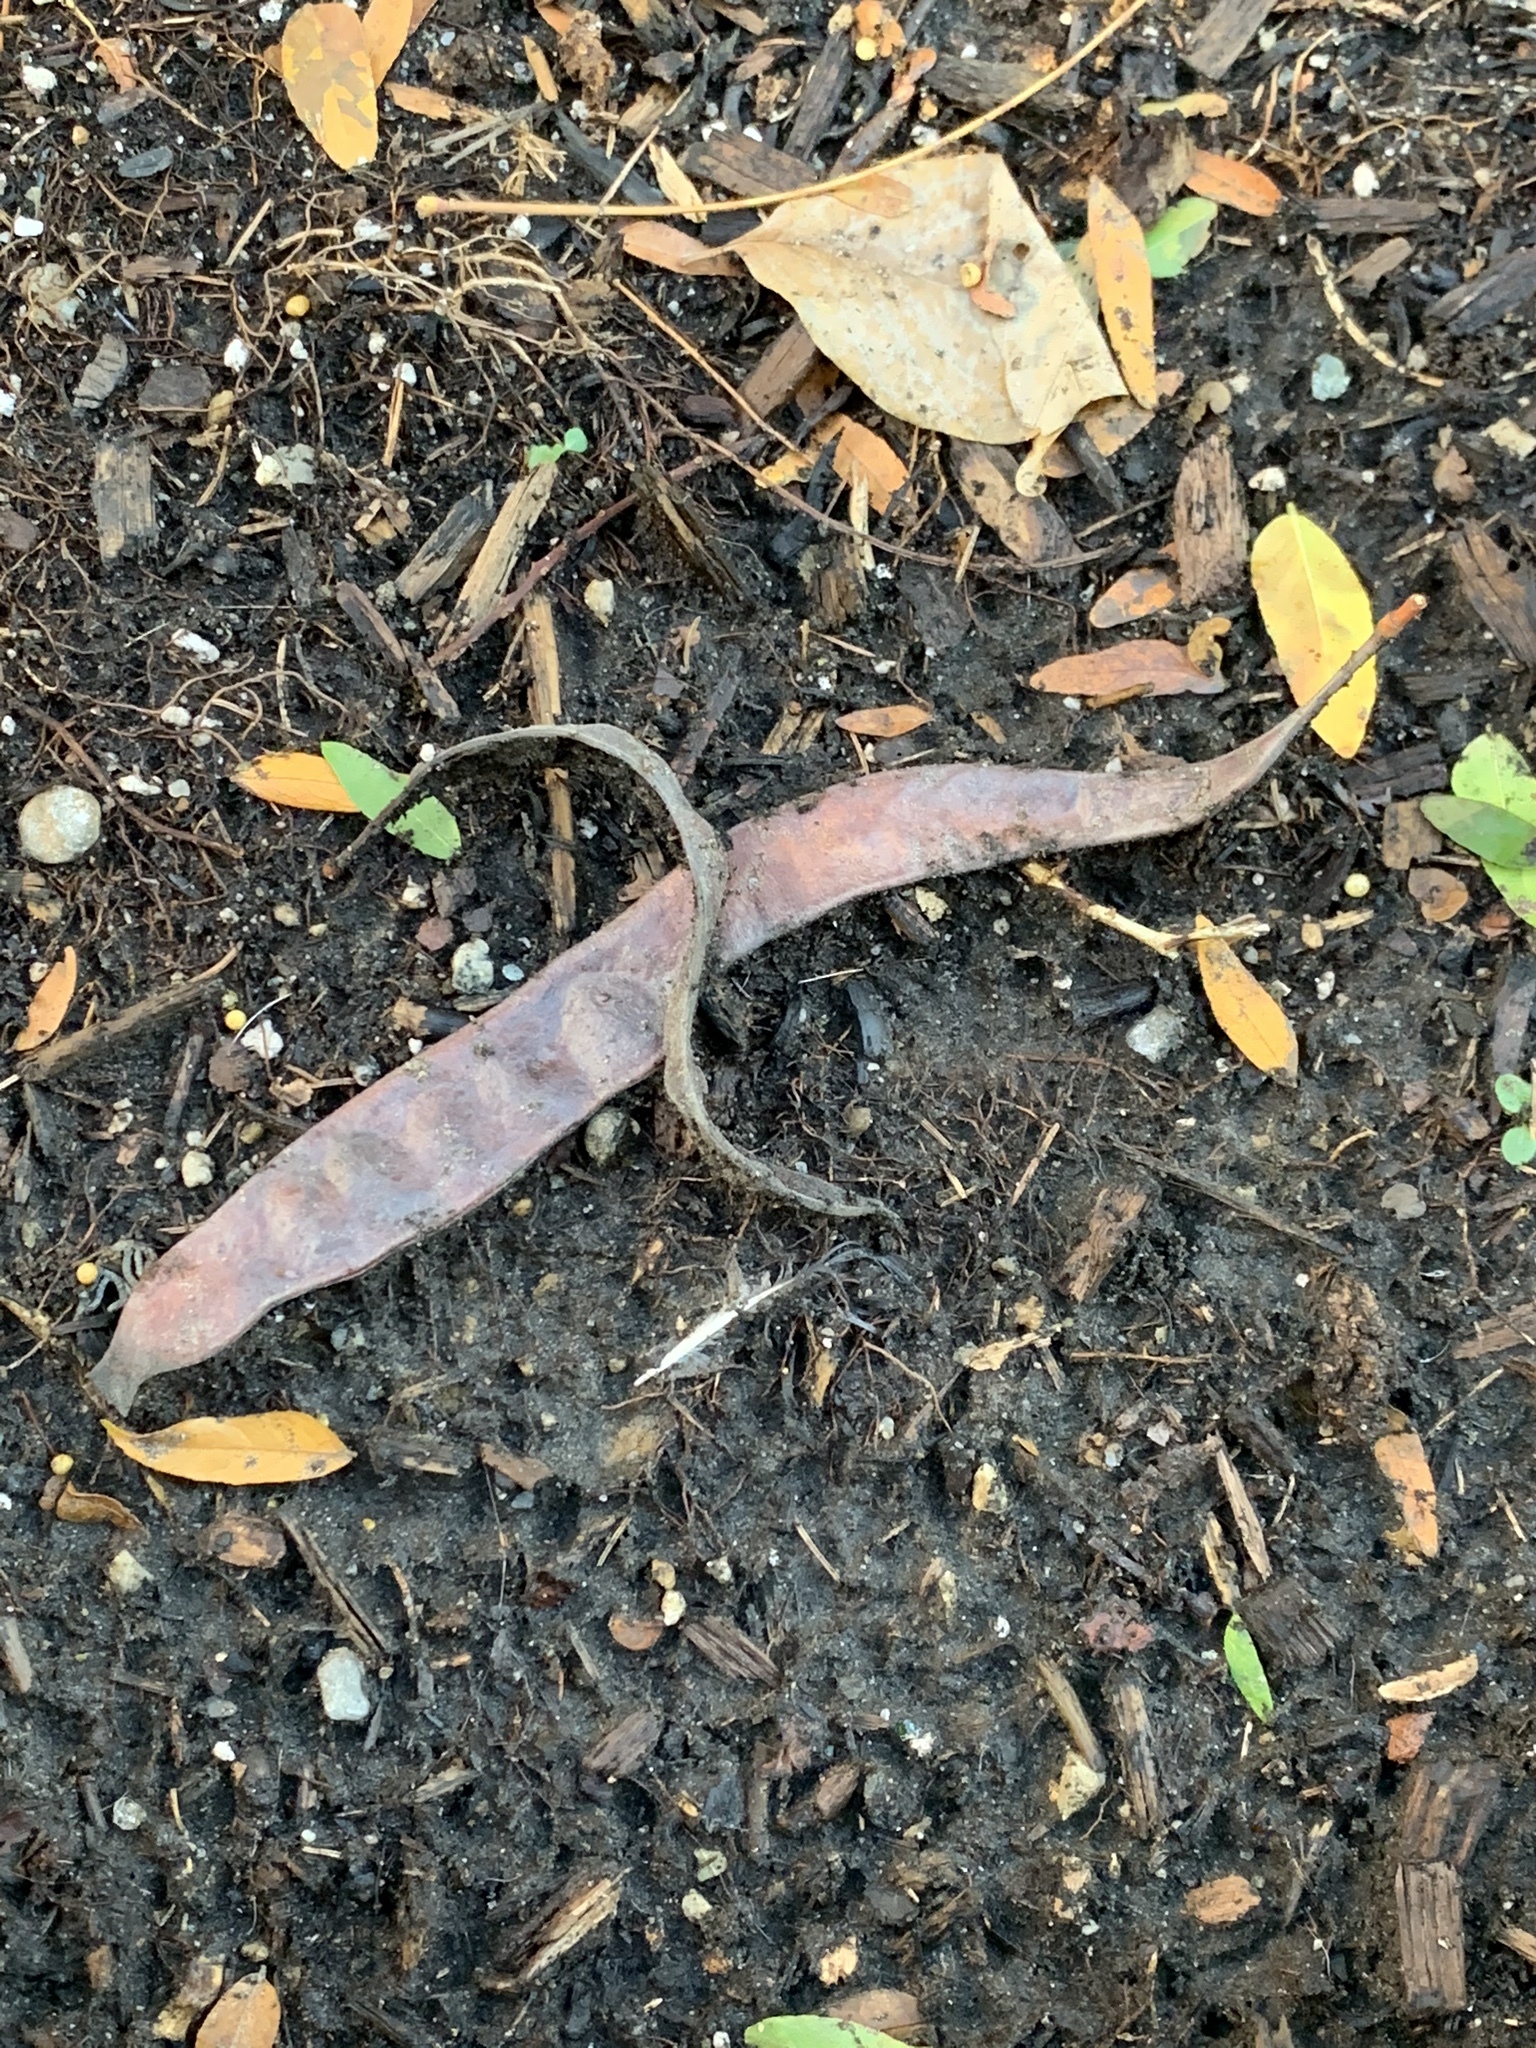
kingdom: Plantae
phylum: Tracheophyta
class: Magnoliopsida
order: Fabales
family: Fabaceae
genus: Gleditsia
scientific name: Gleditsia triacanthos
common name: Common honeylocust
